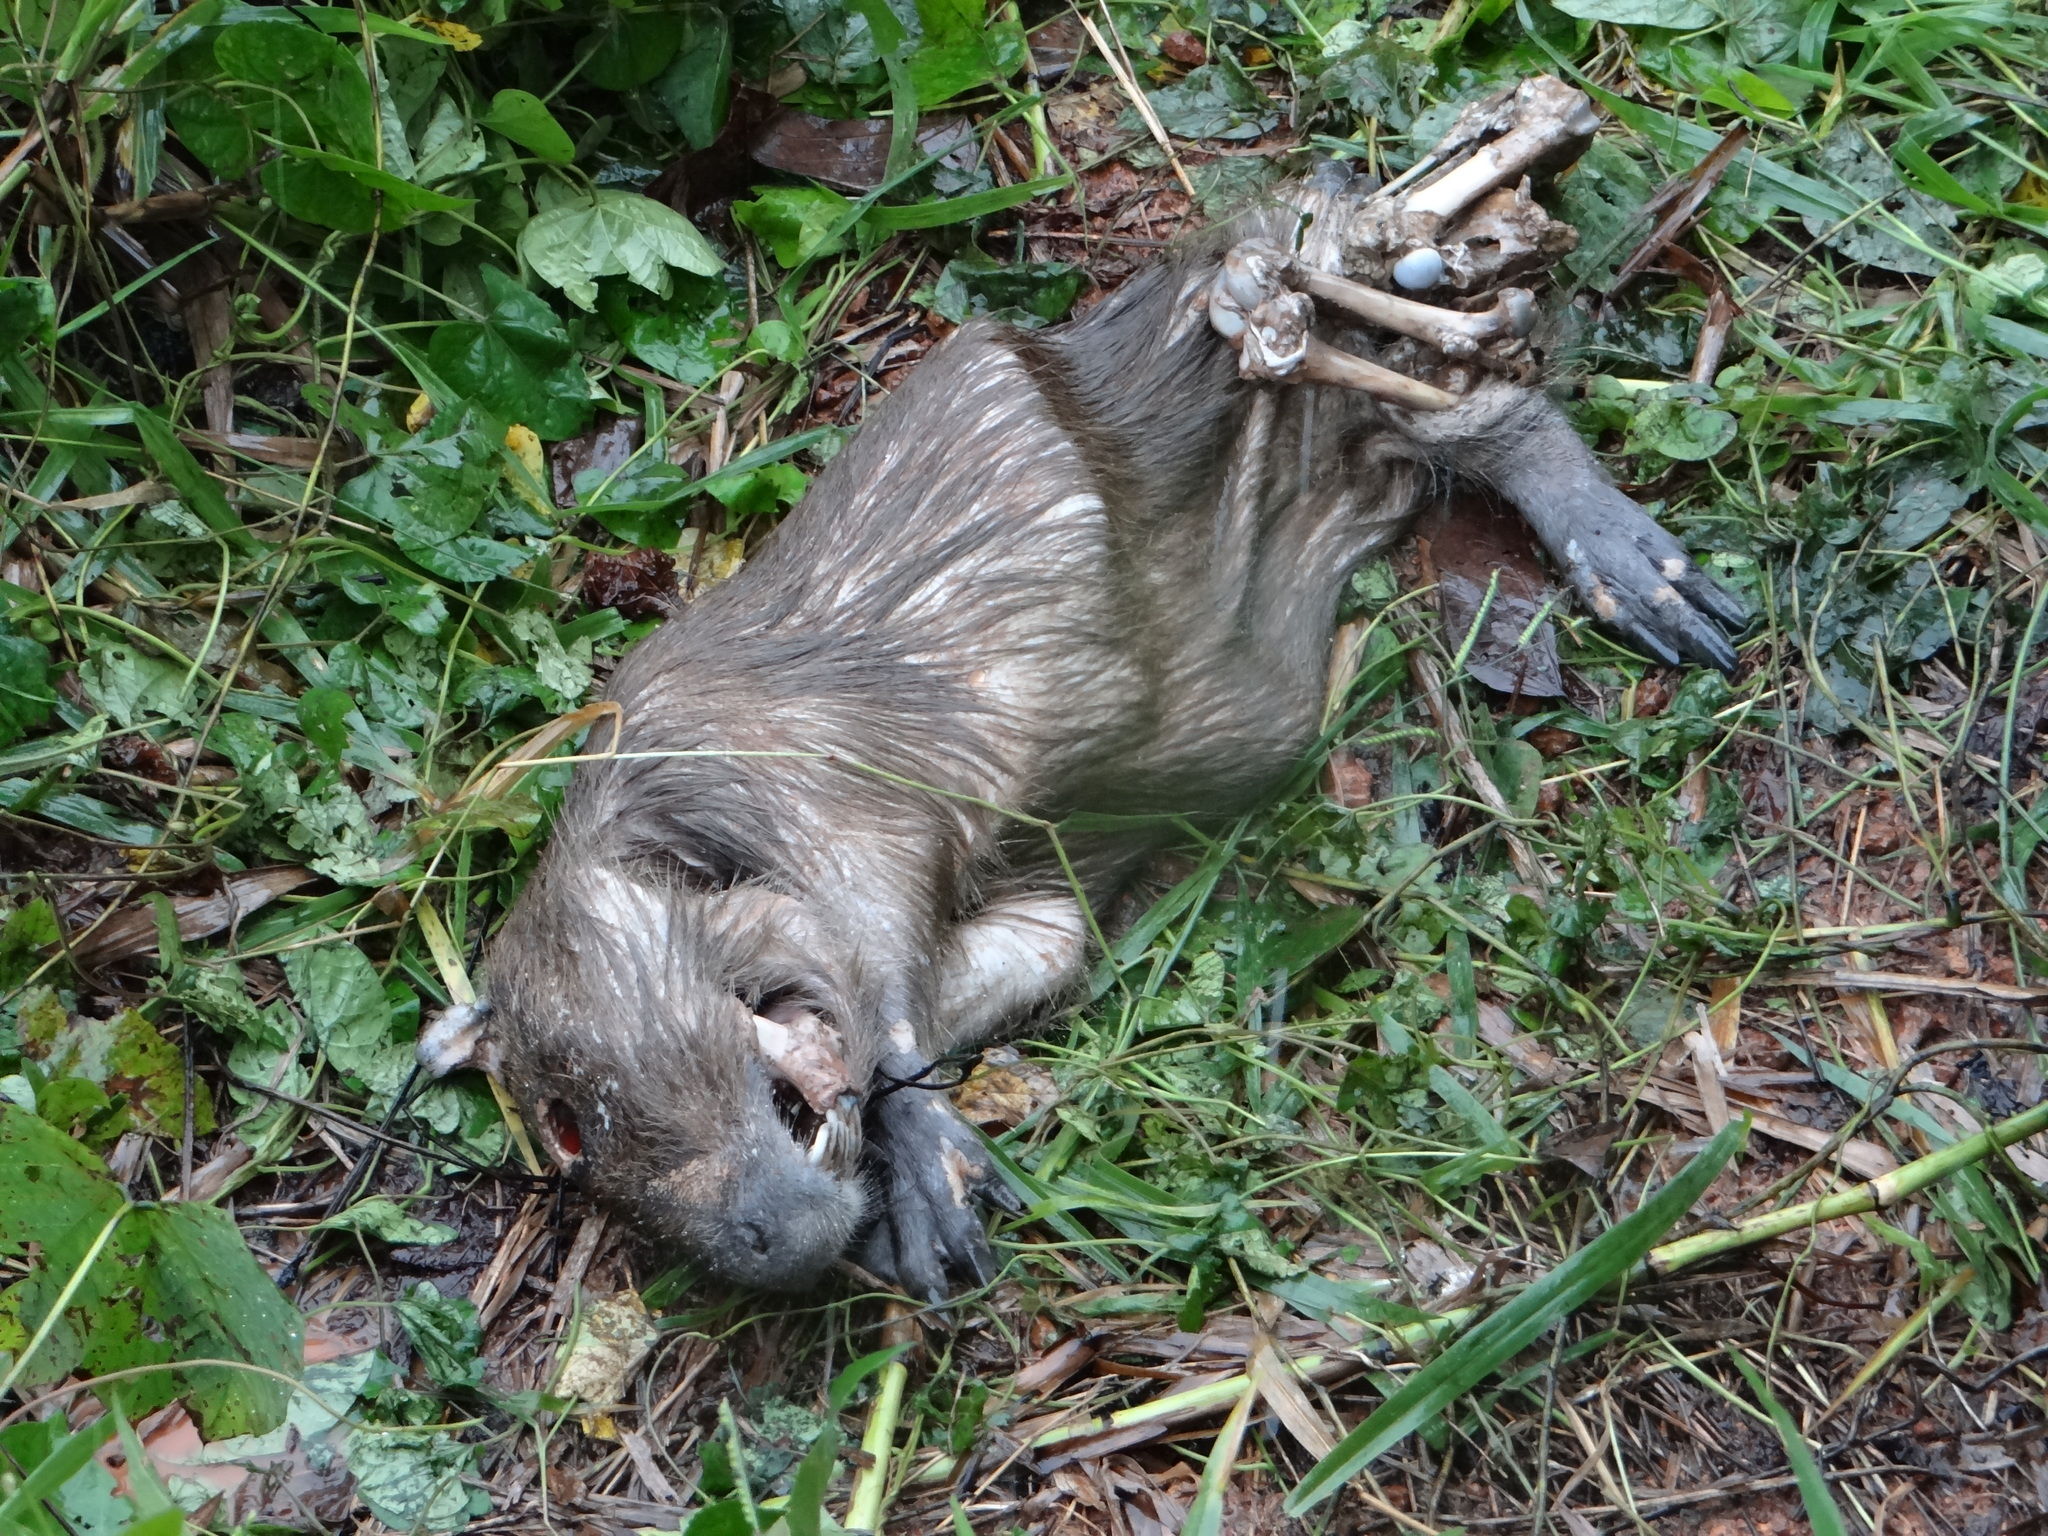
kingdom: Animalia
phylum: Chordata
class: Mammalia
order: Rodentia
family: Caviidae
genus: Hydrochoerus
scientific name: Hydrochoerus hydrochaeris
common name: Capybara
